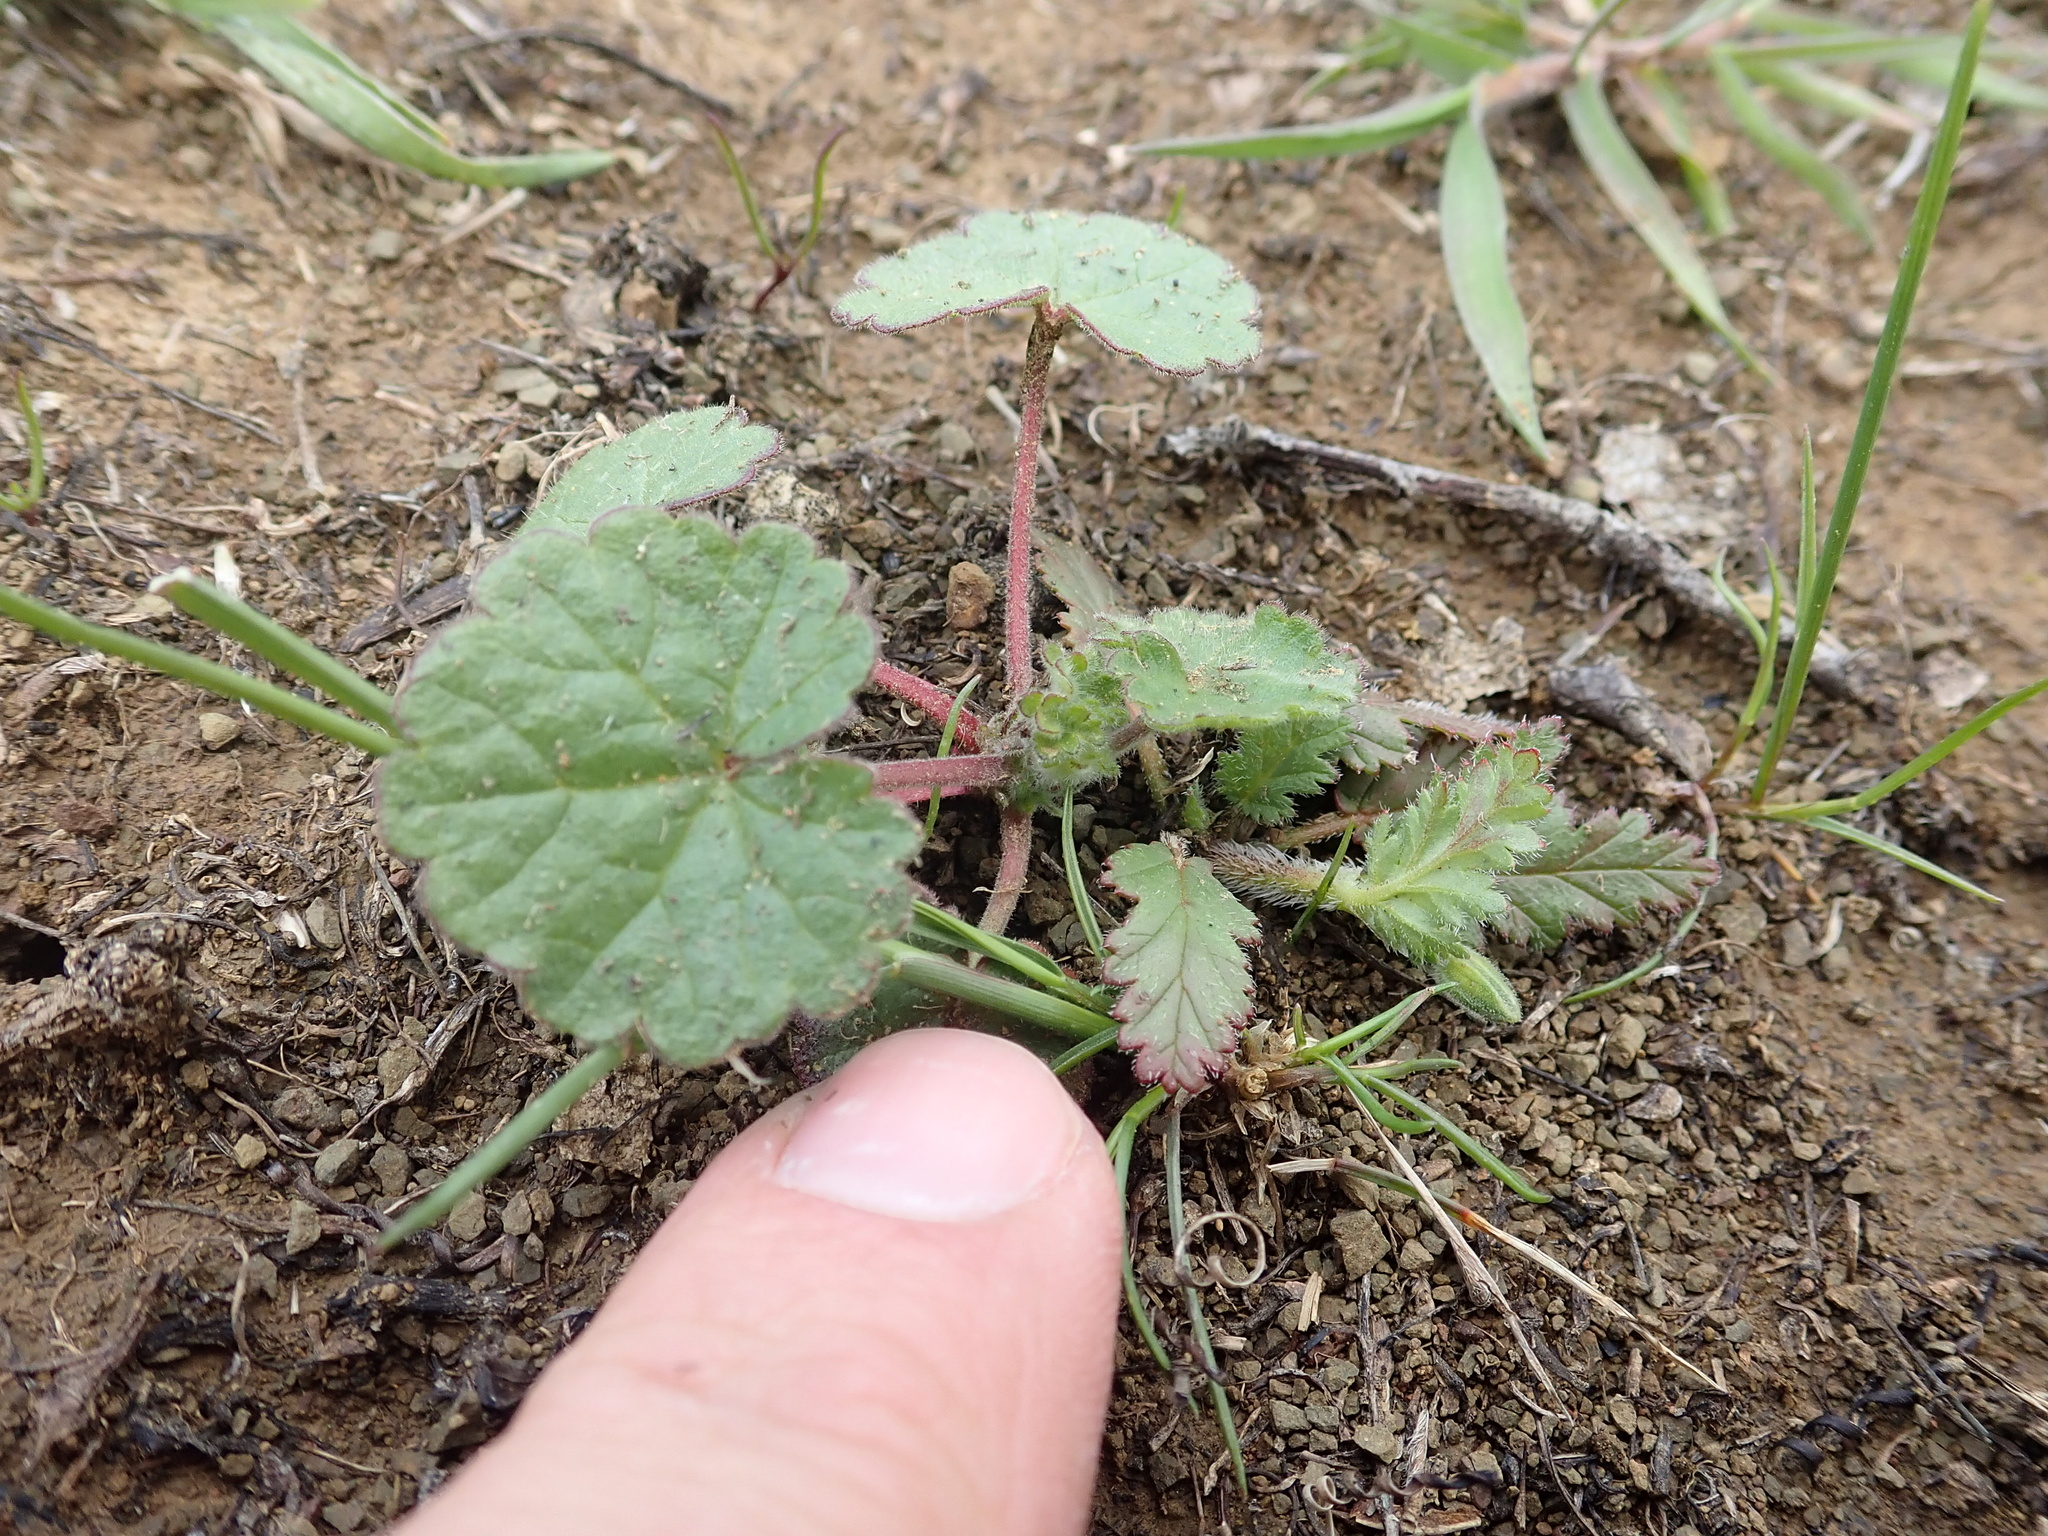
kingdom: Plantae
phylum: Tracheophyta
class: Magnoliopsida
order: Malvales
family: Malvaceae
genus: Sidalcea
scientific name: Sidalcea diploscypha
